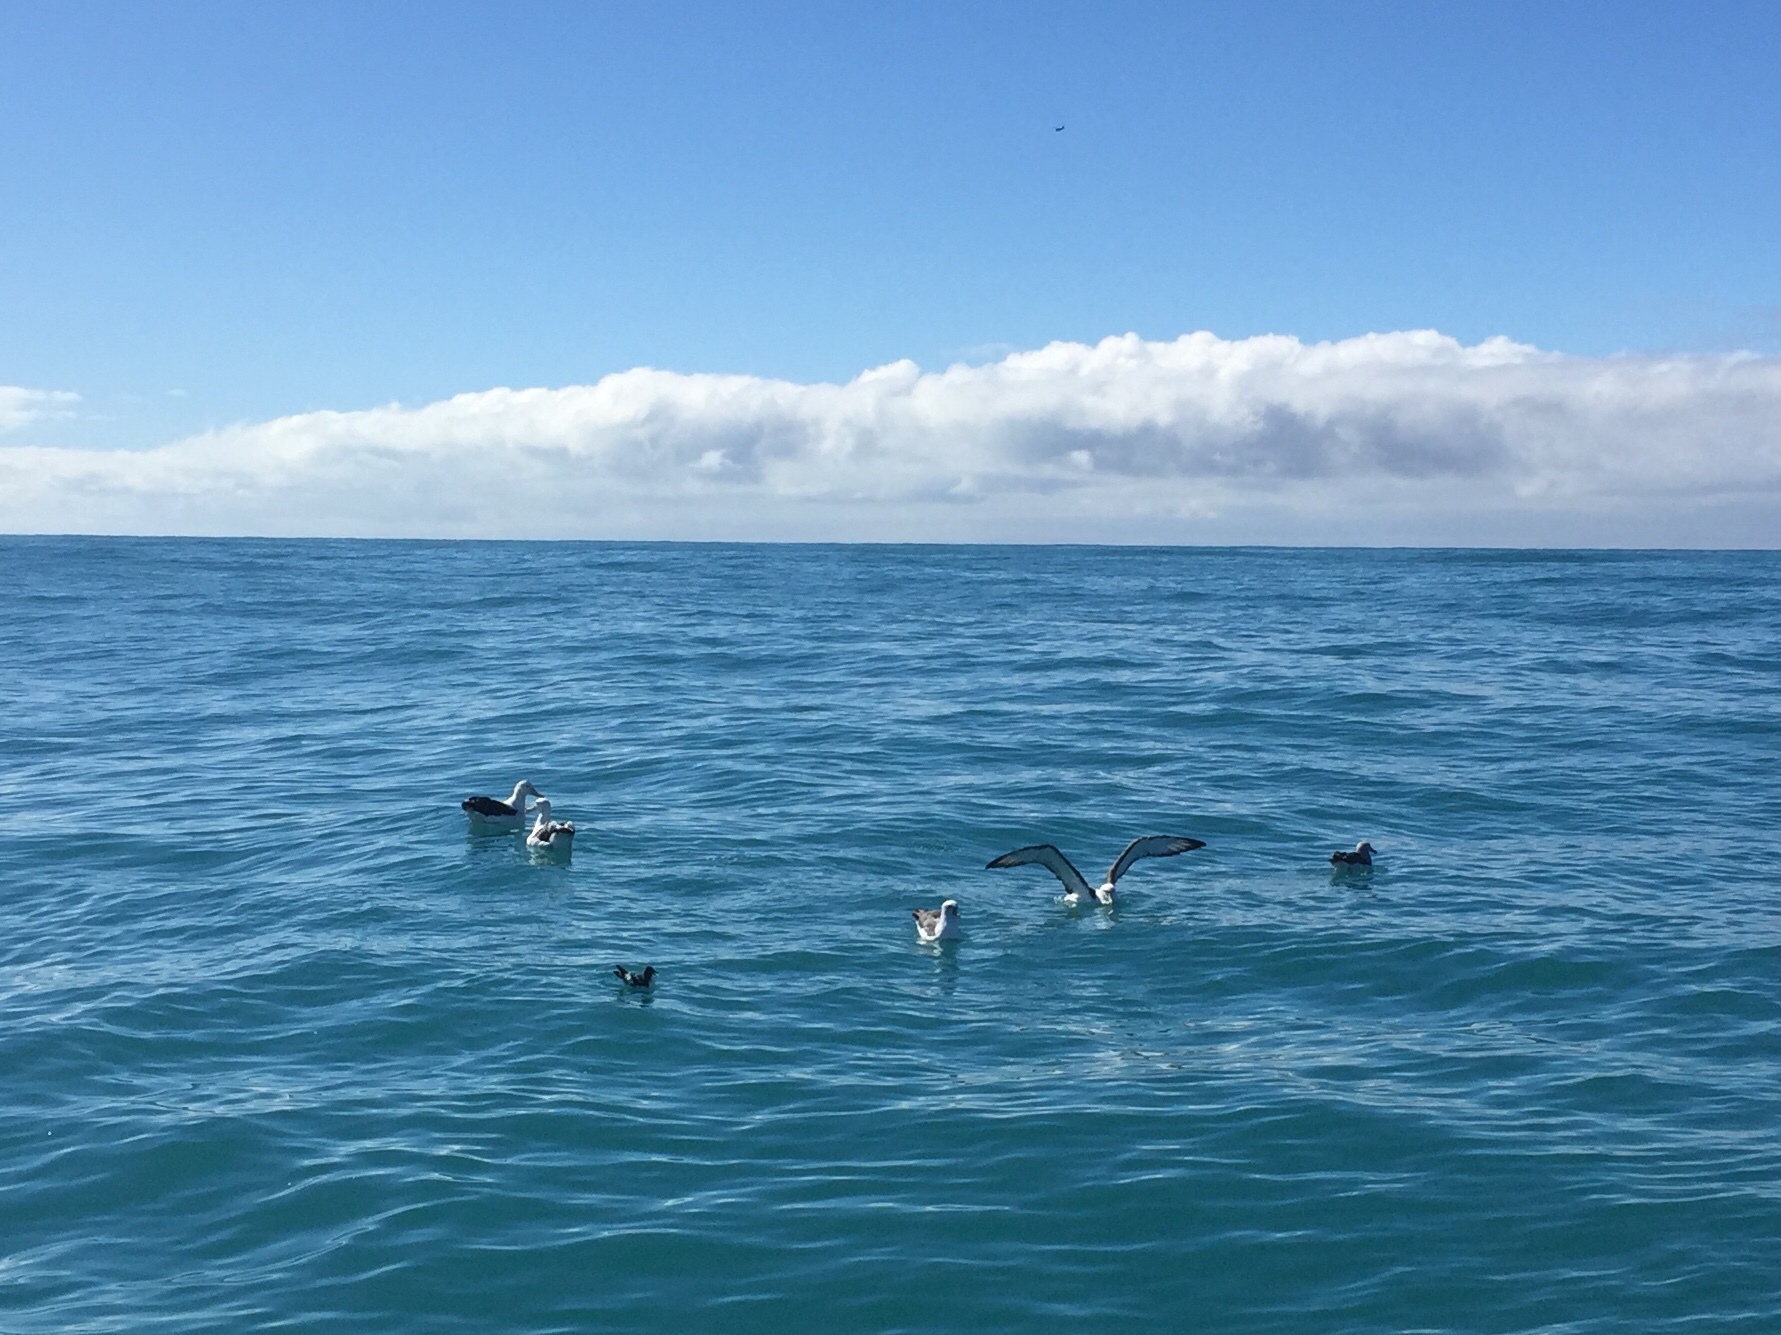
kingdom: Animalia
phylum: Chordata
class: Aves
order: Procellariiformes
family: Procellariidae
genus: Daption
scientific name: Daption capense
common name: Cape petrel
